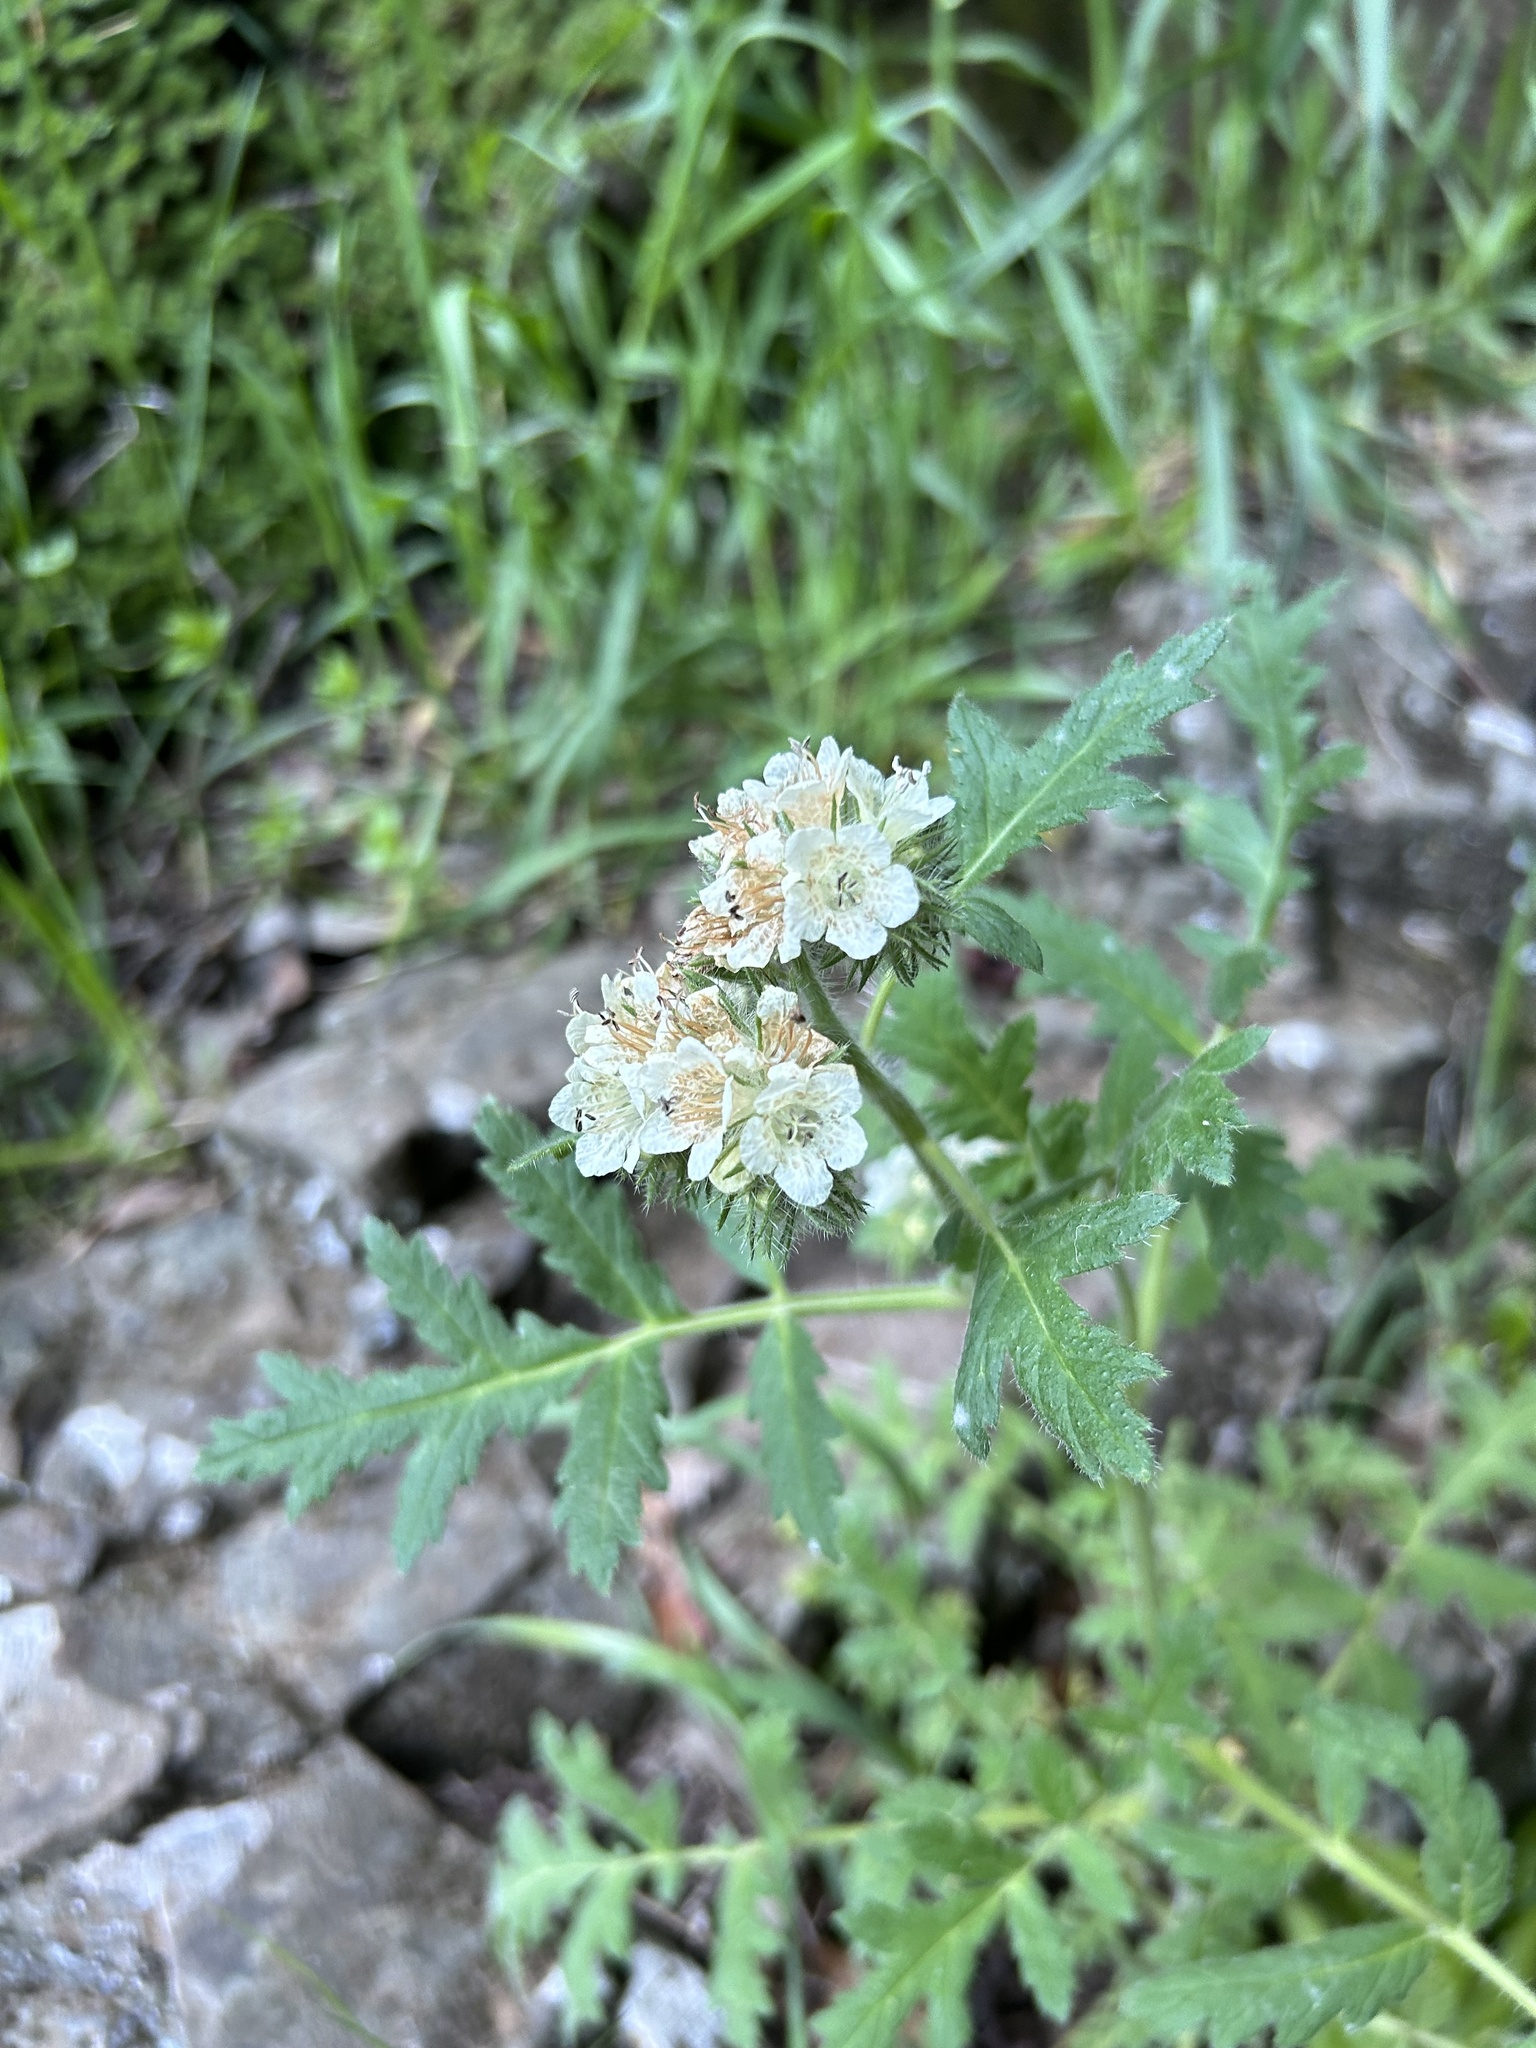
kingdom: Plantae
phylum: Tracheophyta
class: Magnoliopsida
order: Boraginales
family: Hydrophyllaceae
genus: Phacelia
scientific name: Phacelia cicutaria
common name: Caterpillar phacelia
